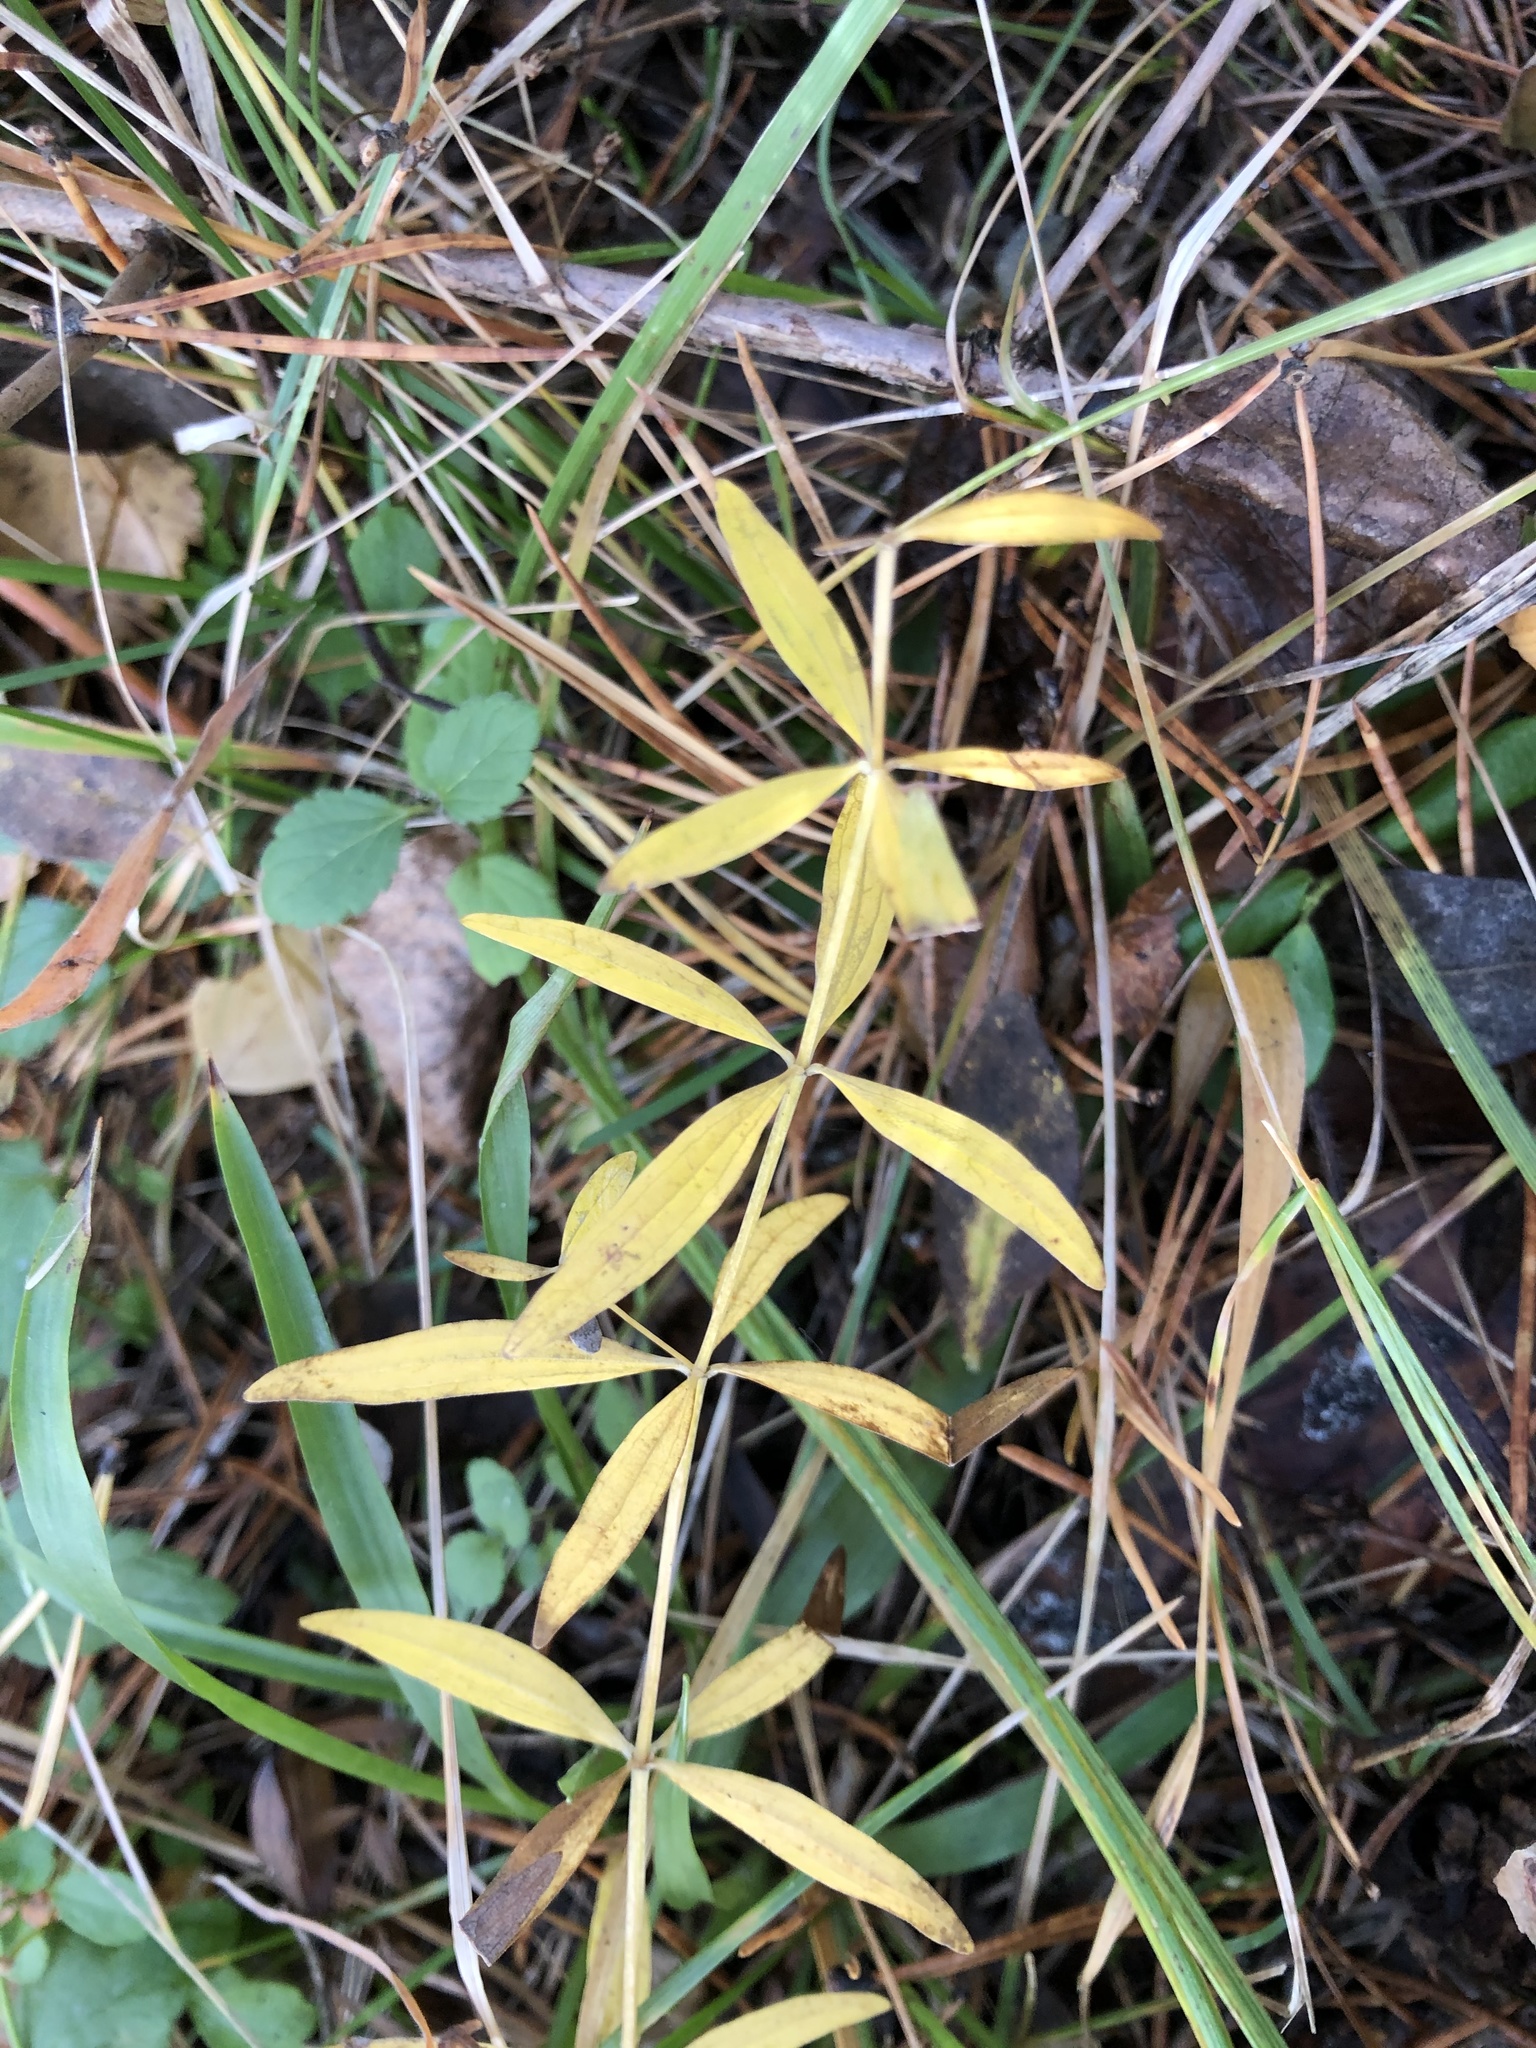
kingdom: Plantae
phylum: Tracheophyta
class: Magnoliopsida
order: Gentianales
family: Rubiaceae
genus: Galium
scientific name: Galium boreale
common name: Northern bedstraw
